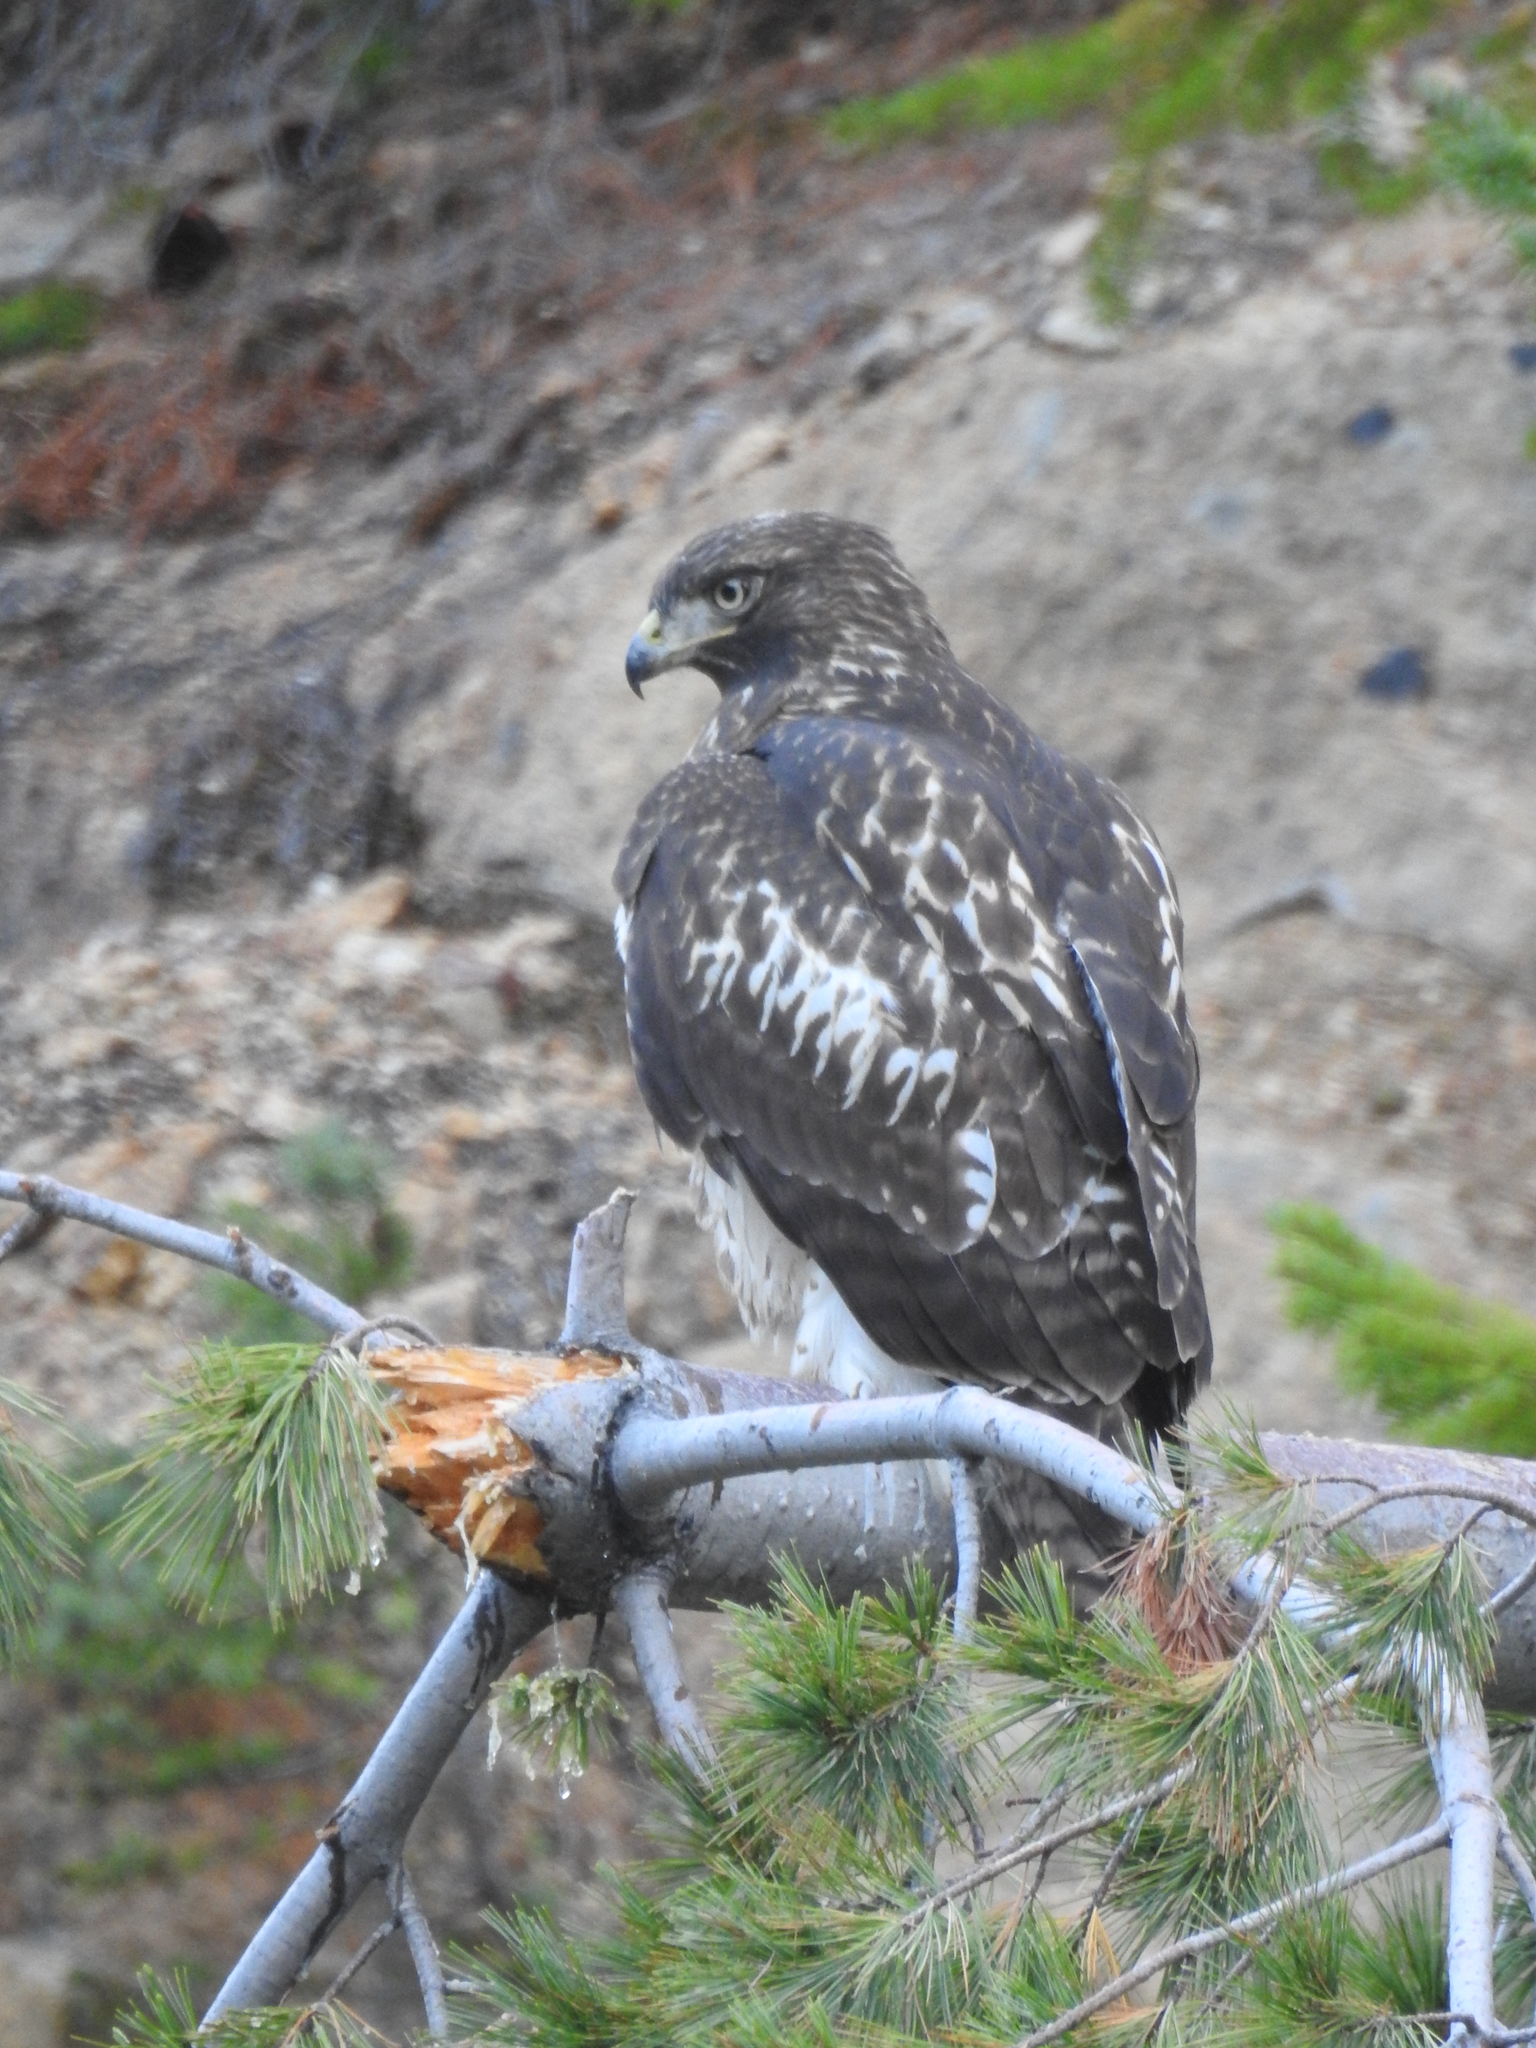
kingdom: Animalia
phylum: Chordata
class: Aves
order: Accipitriformes
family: Accipitridae
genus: Buteo
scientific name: Buteo jamaicensis
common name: Red-tailed hawk
